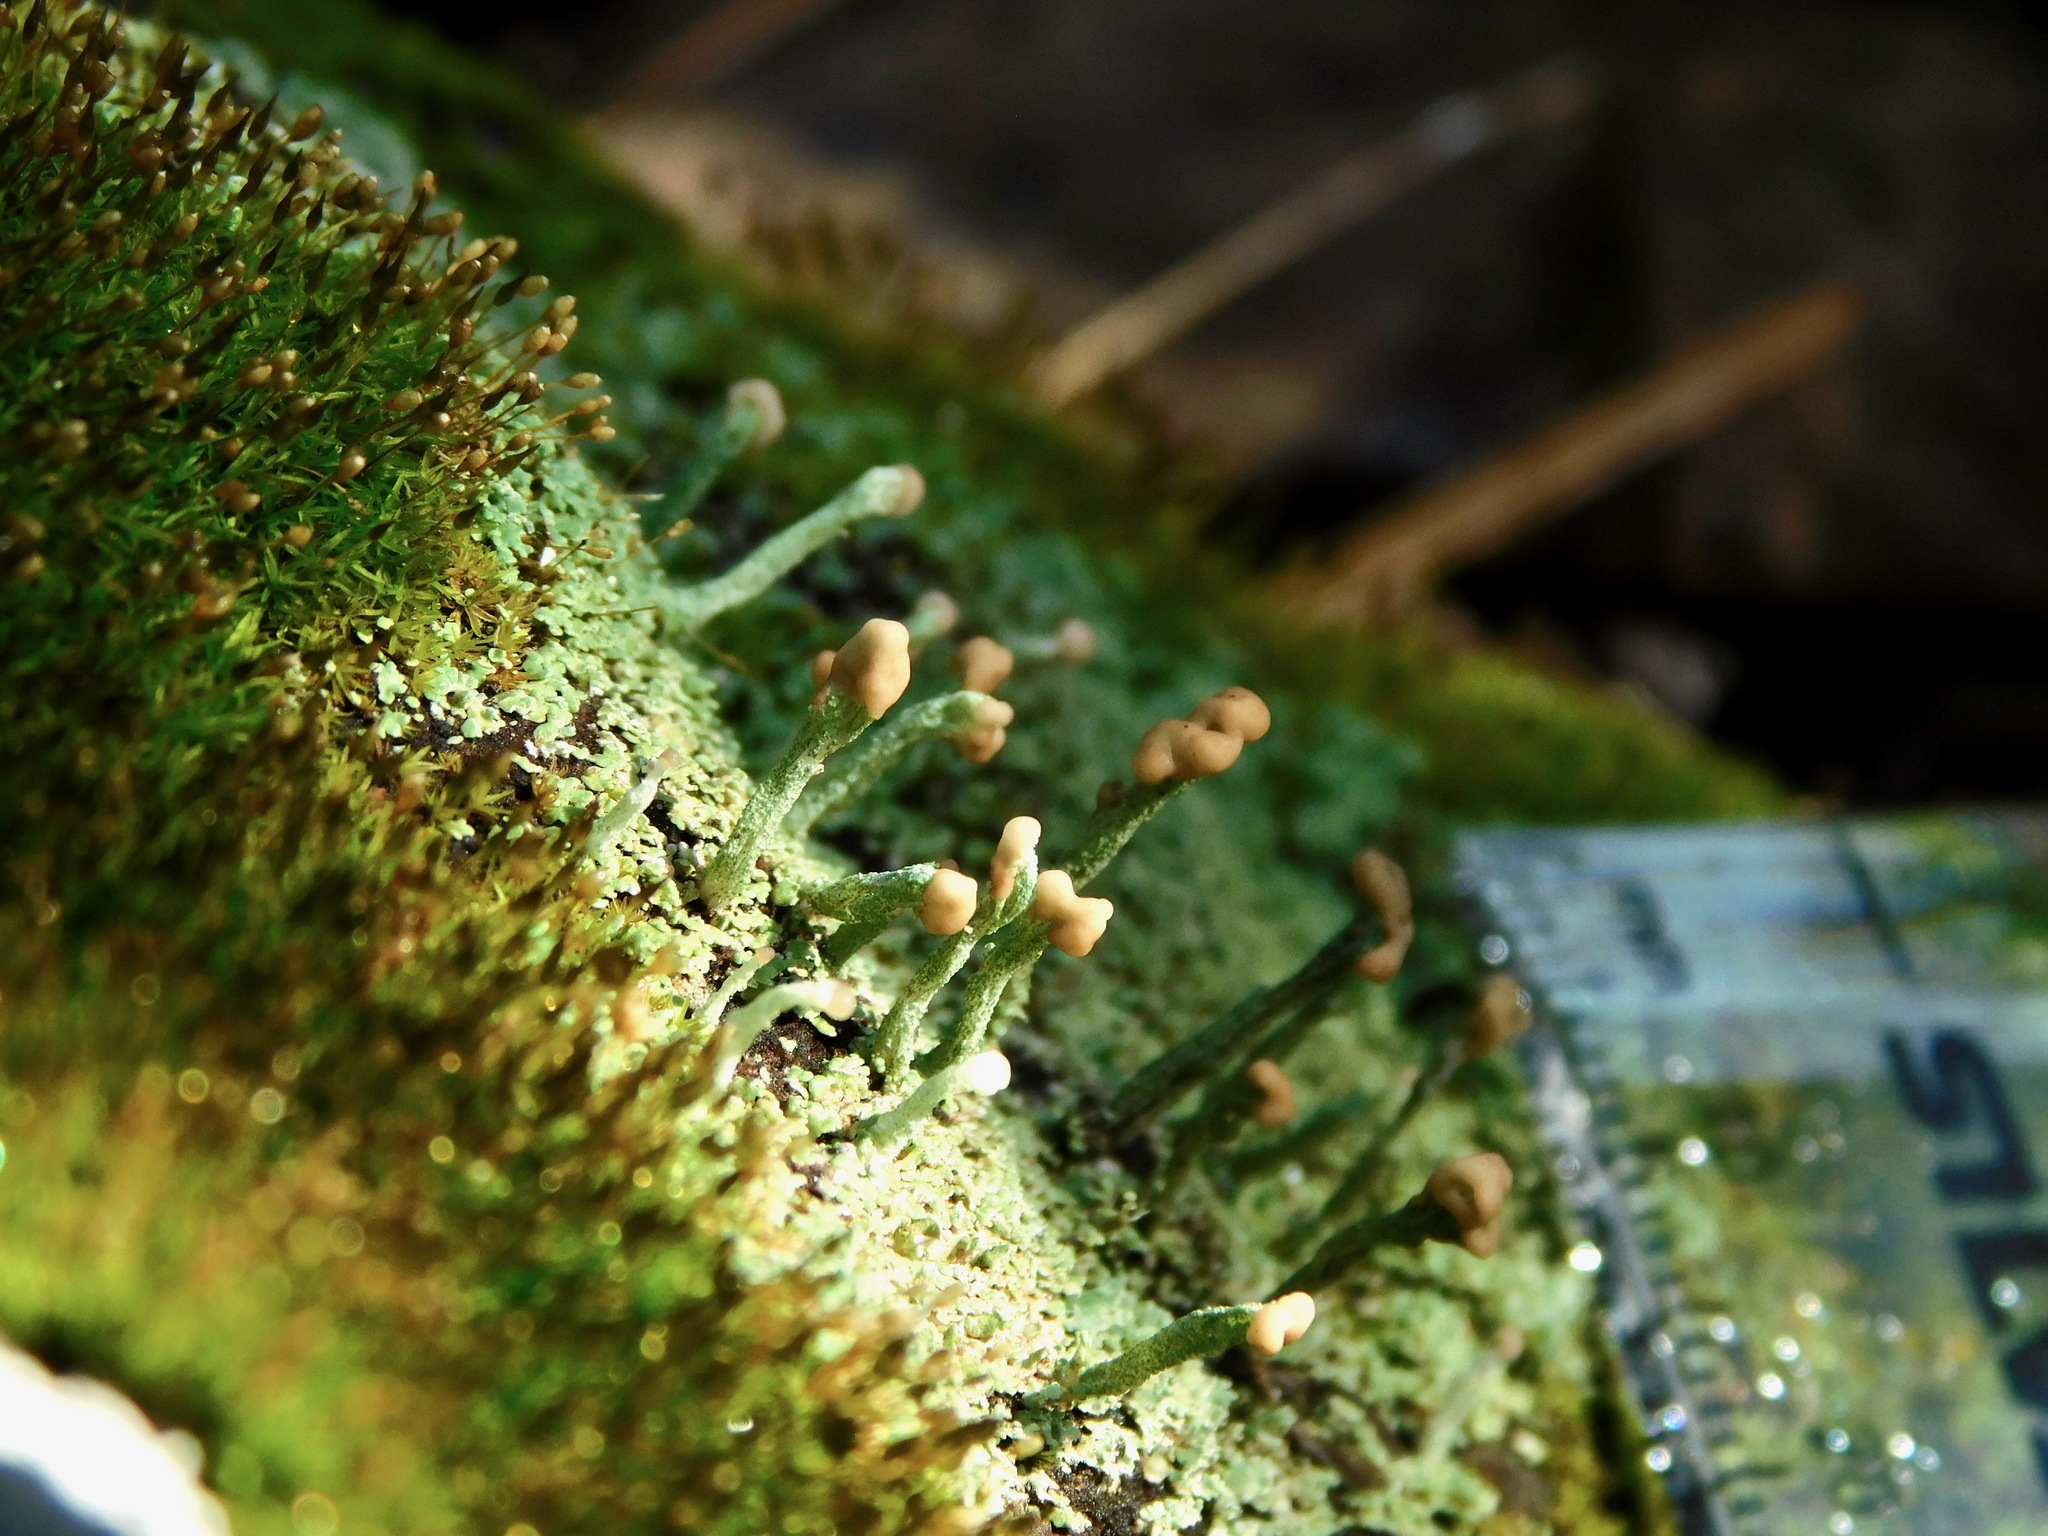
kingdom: Fungi
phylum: Ascomycota
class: Lecanoromycetes
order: Lecanorales
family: Cladoniaceae
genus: Cladonia
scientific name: Cladonia peziziformis
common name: Cup lichen
